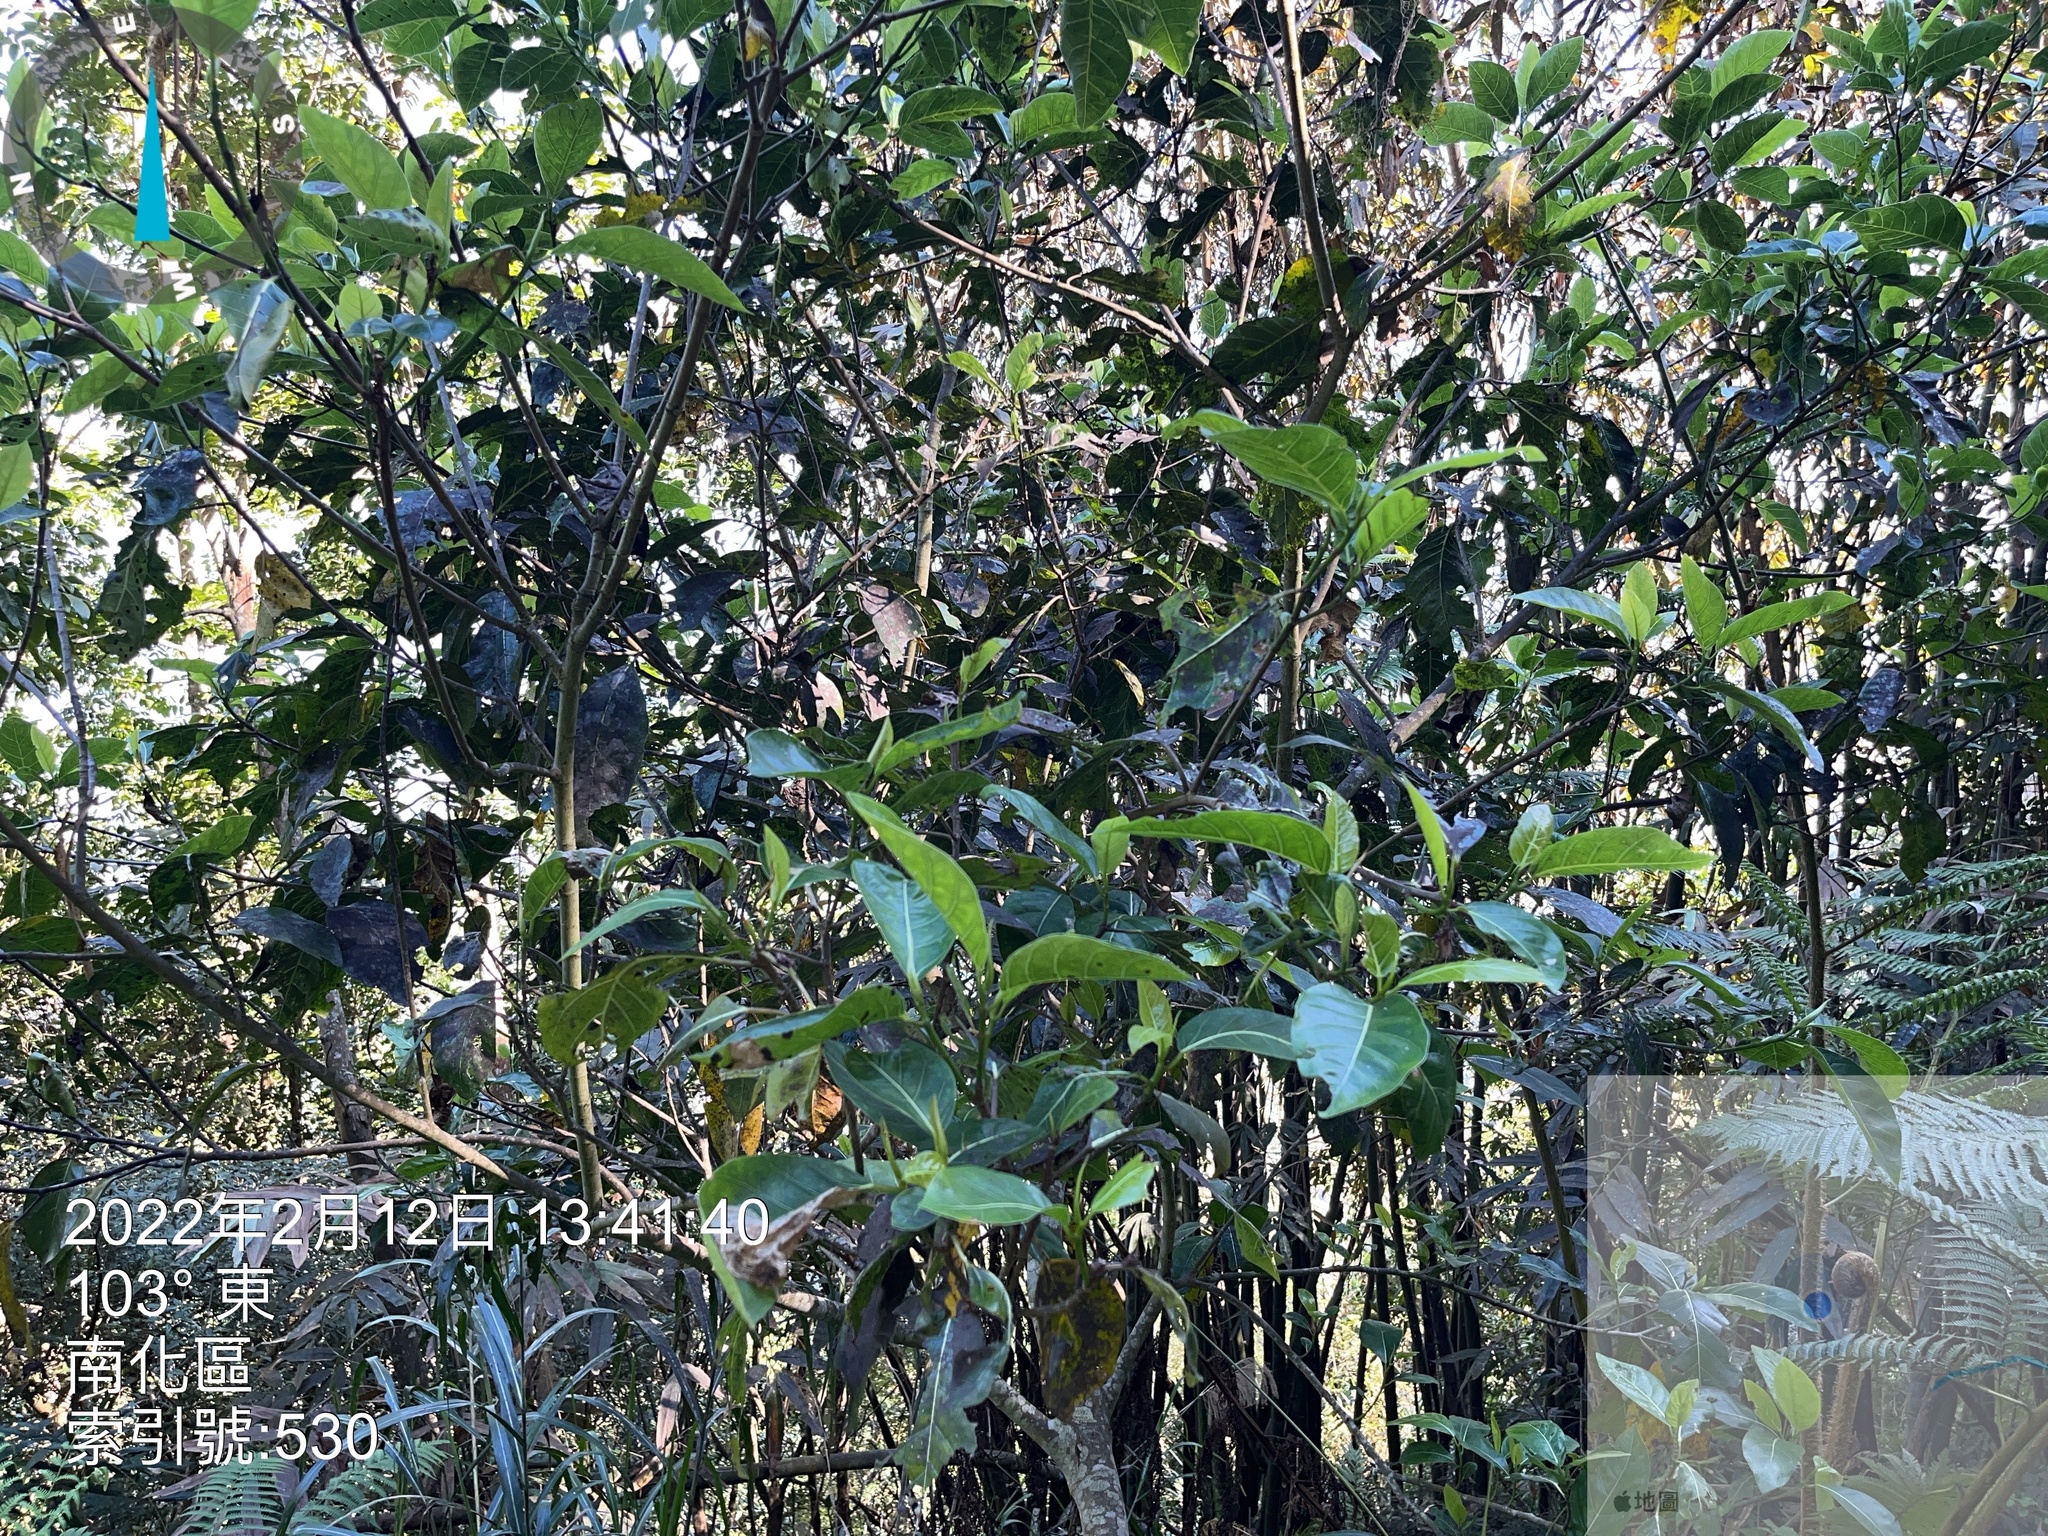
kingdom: Plantae
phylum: Tracheophyta
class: Magnoliopsida
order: Rosales
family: Moraceae
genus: Ficus
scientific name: Ficus septica
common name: Septic fig
